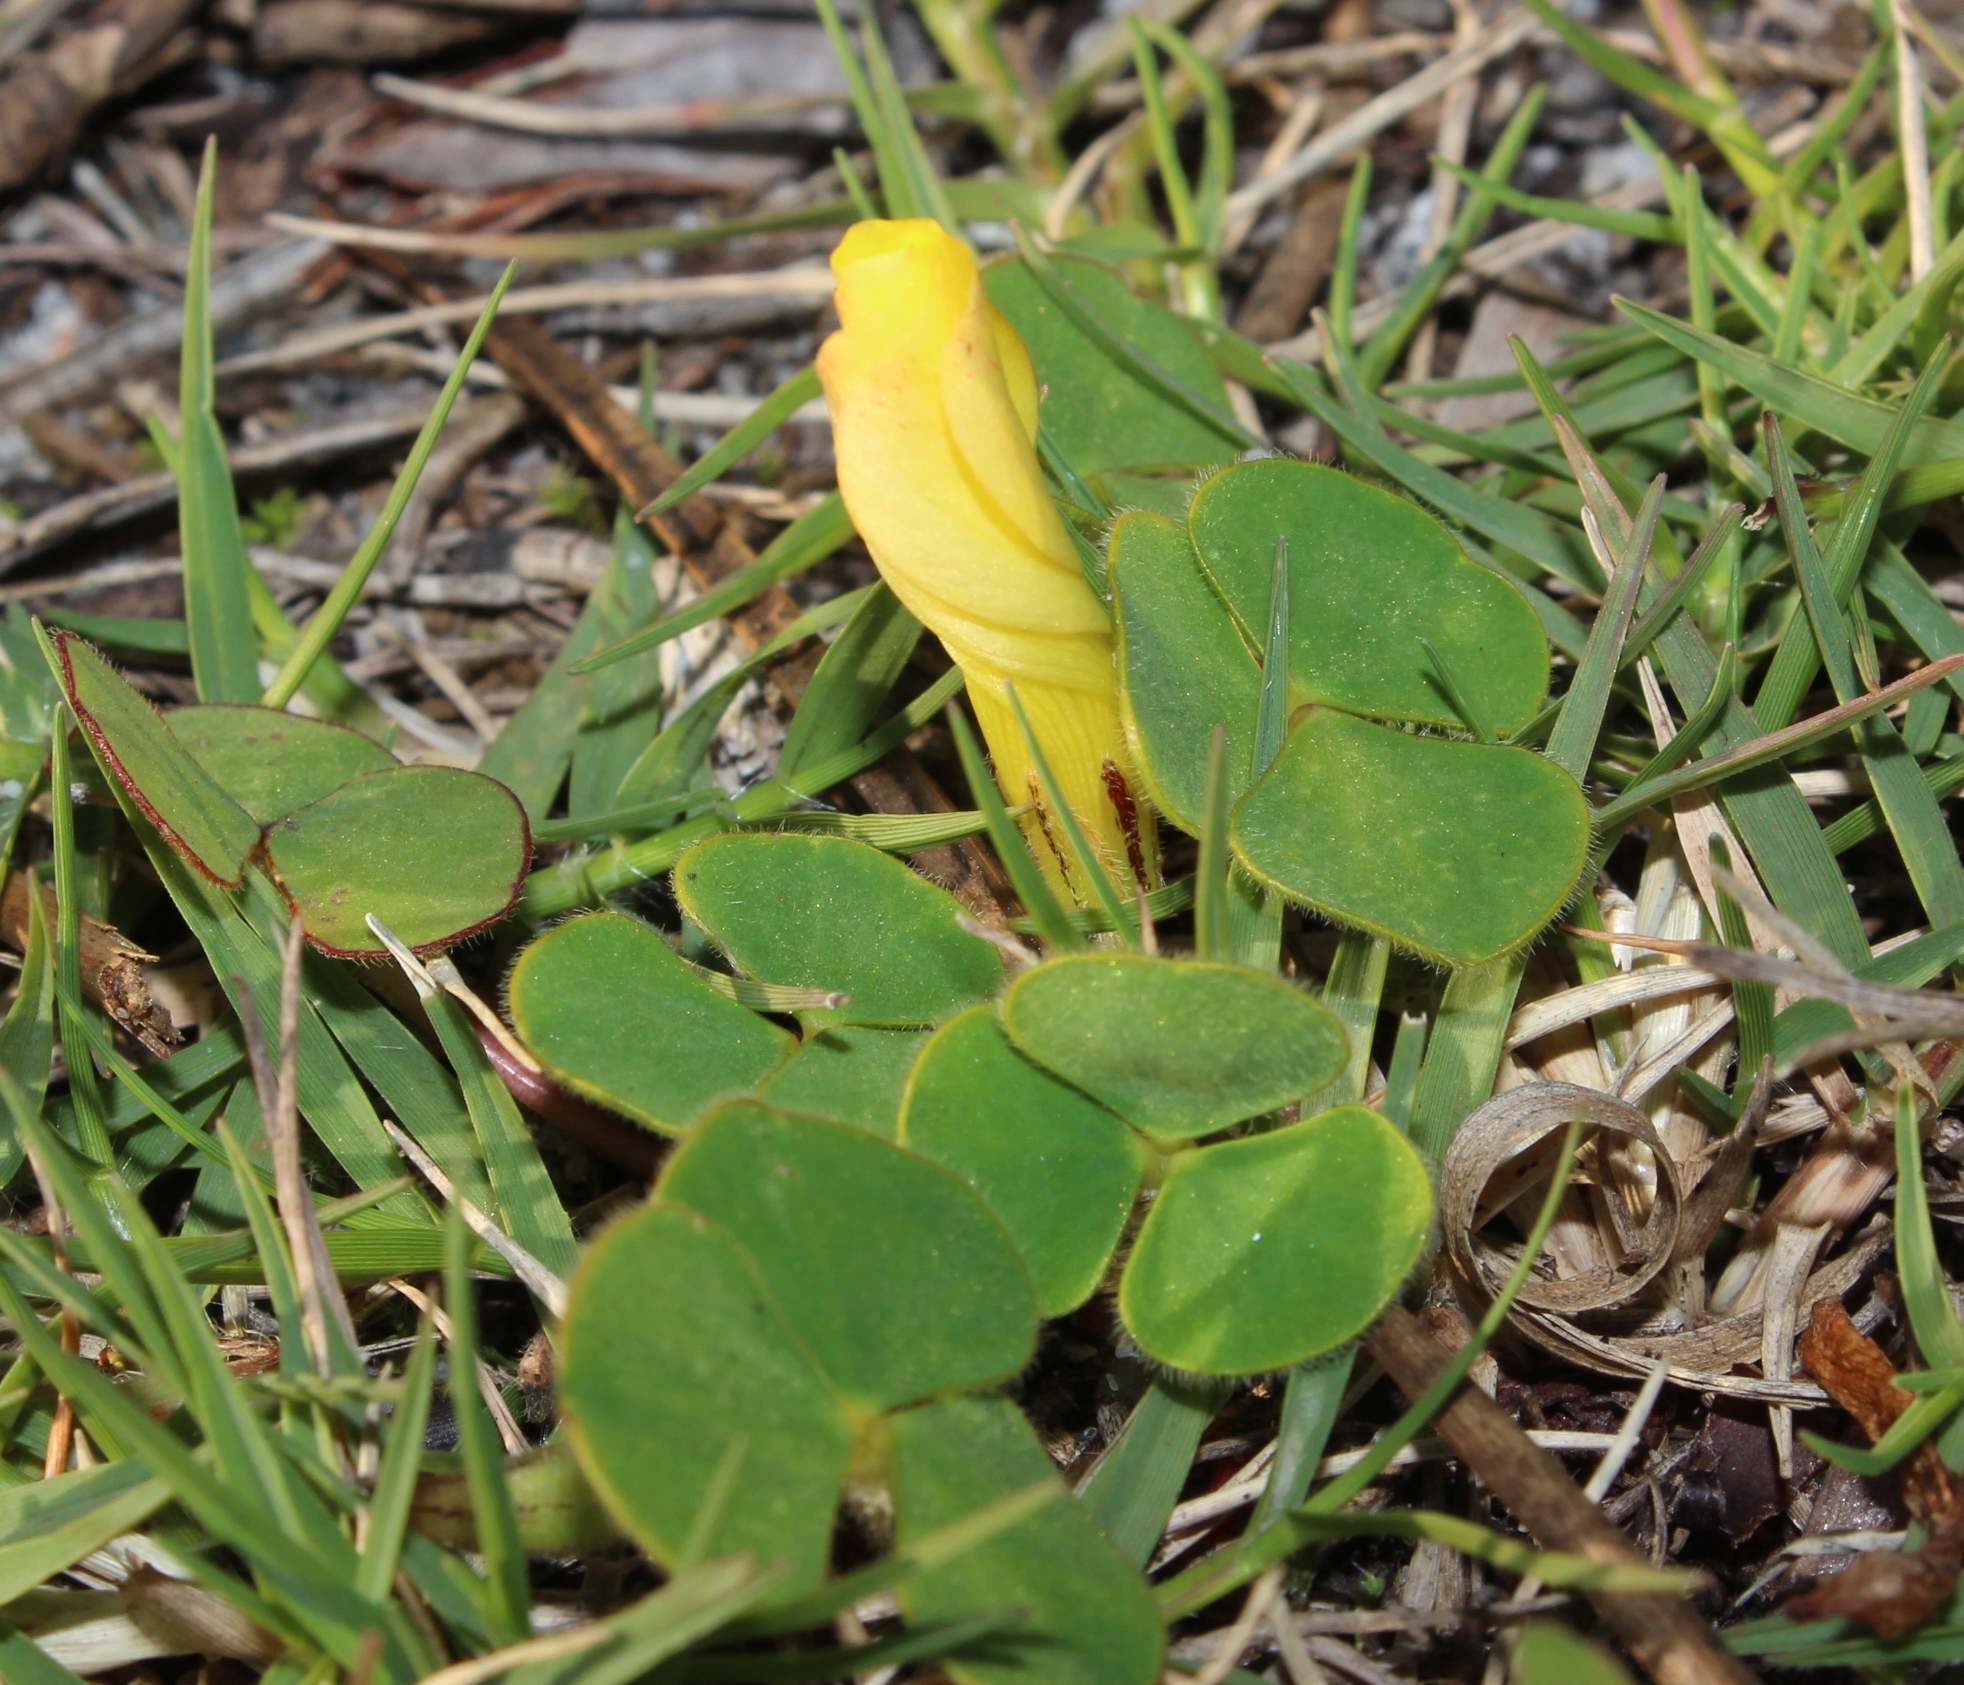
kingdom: Plantae
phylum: Tracheophyta
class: Magnoliopsida
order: Oxalidales
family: Oxalidaceae
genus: Oxalis
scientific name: Oxalis luteola
